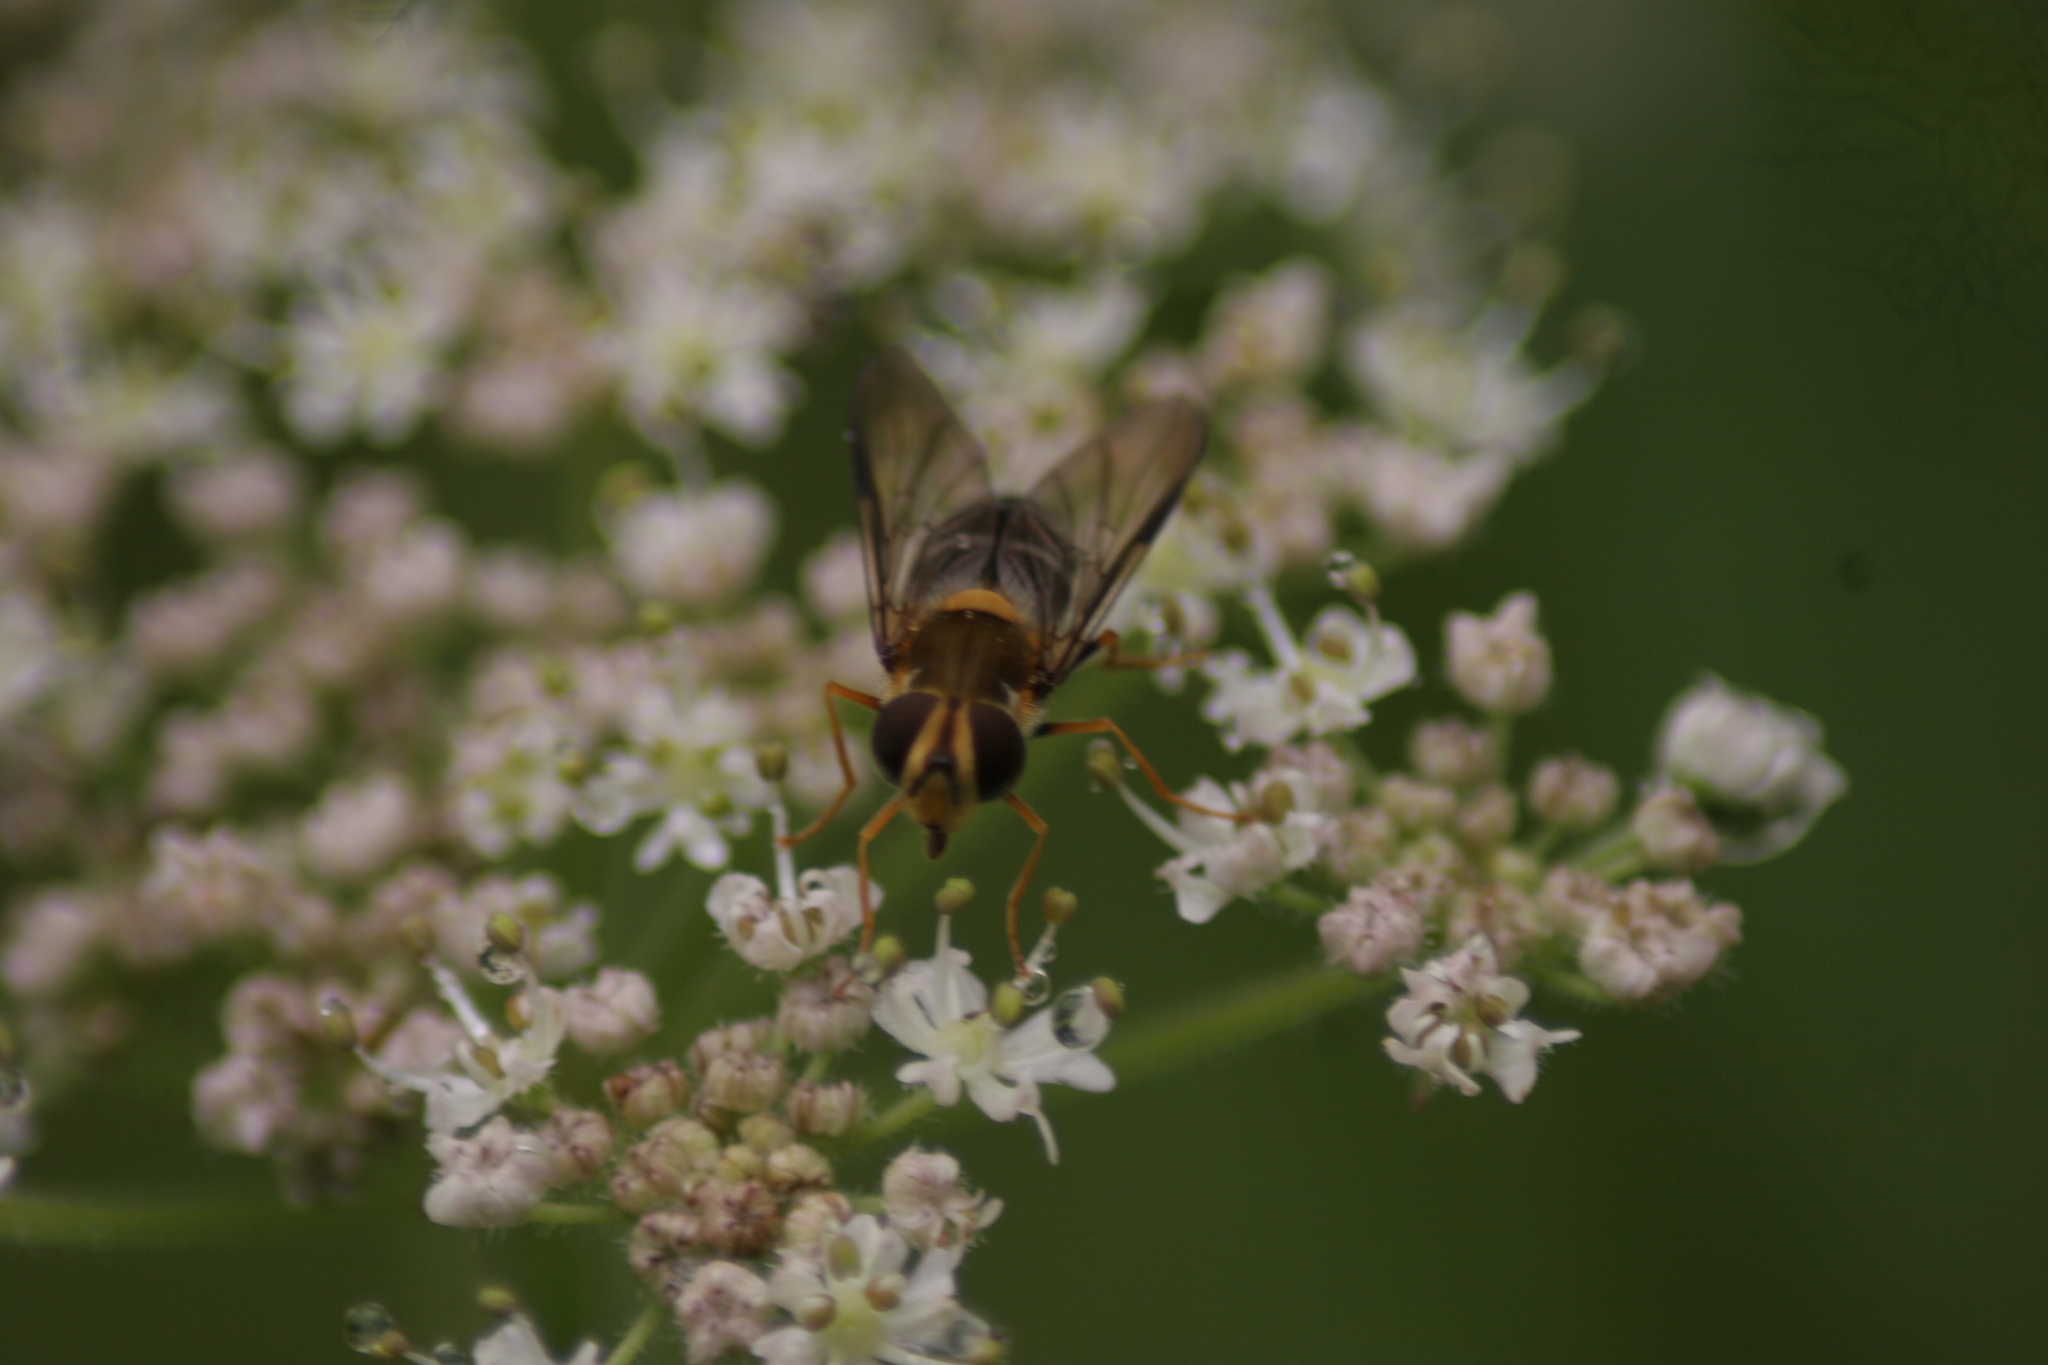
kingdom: Animalia
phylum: Arthropoda
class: Insecta
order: Diptera
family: Syrphidae
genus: Leucozona
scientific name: Leucozona glaucia
